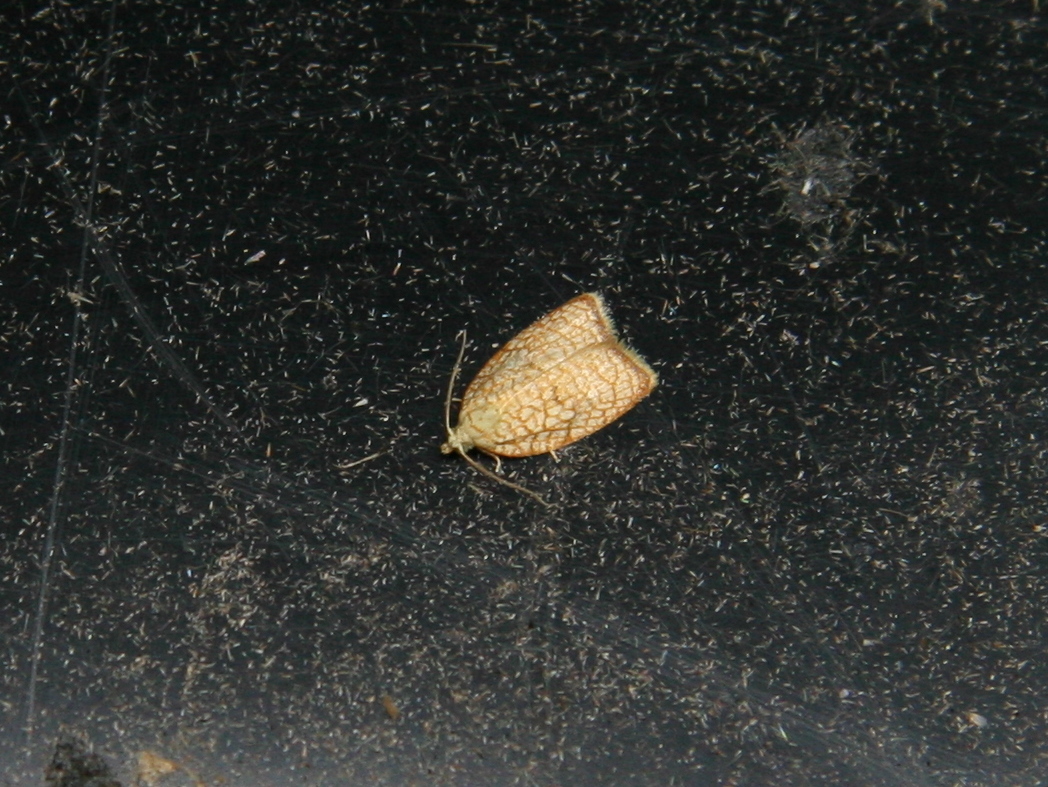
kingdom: Animalia
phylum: Arthropoda
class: Insecta
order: Lepidoptera
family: Tortricidae
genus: Acleris
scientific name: Acleris forsskaleana
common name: Maple button
